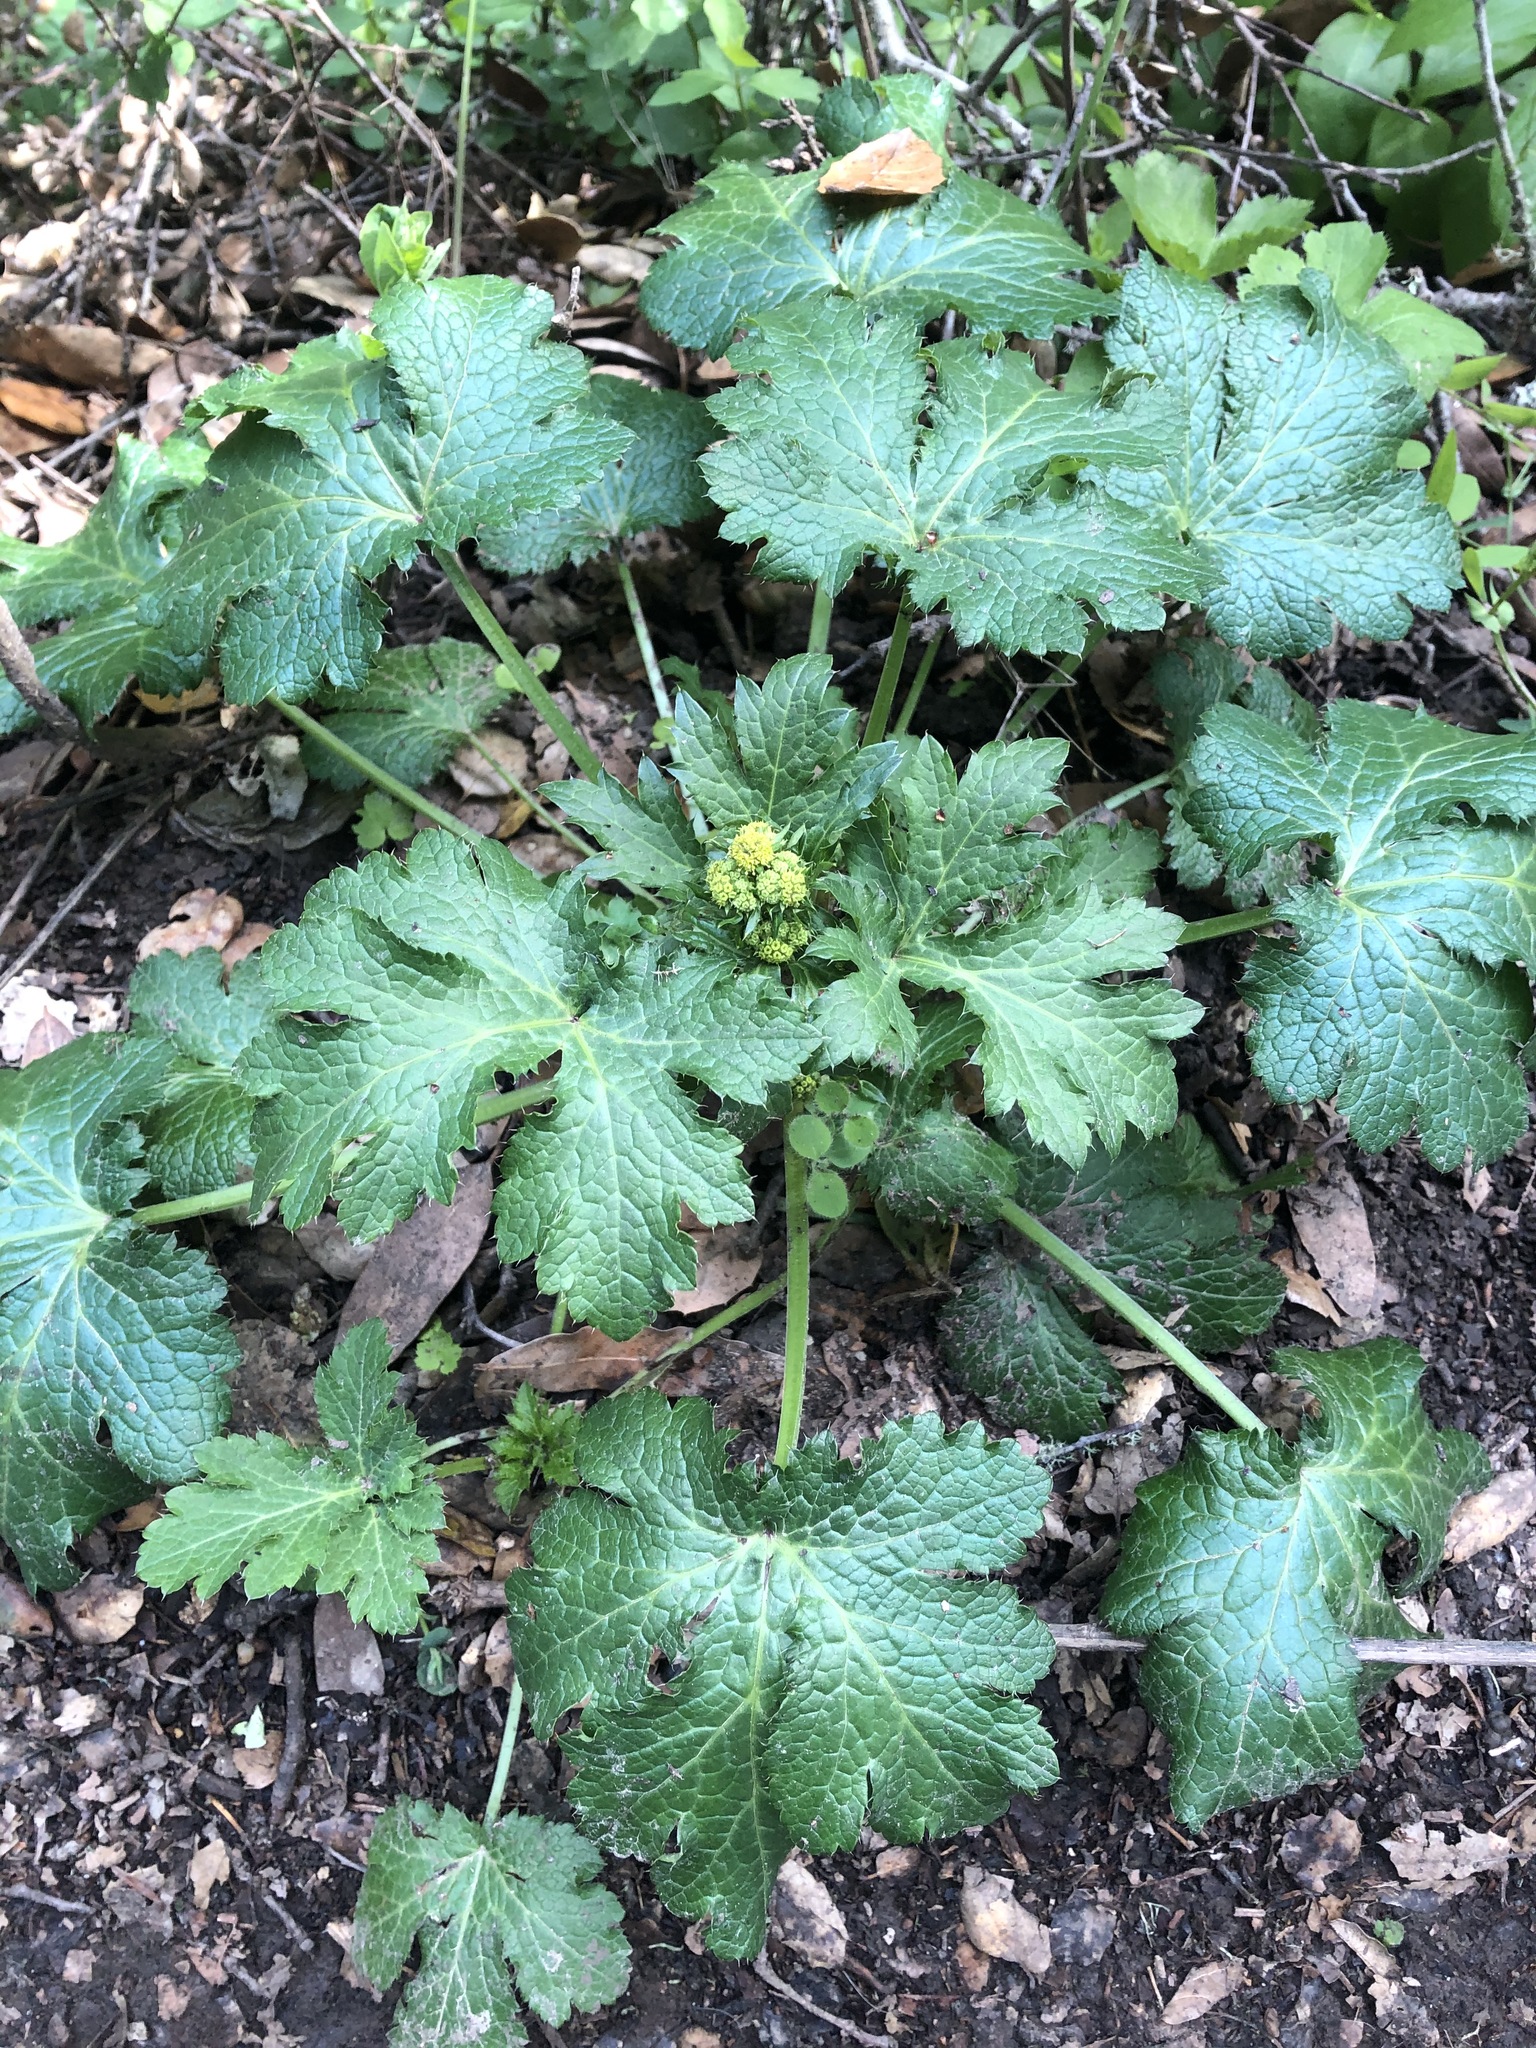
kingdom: Plantae
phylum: Tracheophyta
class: Magnoliopsida
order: Apiales
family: Apiaceae
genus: Sanicula
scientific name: Sanicula crassicaulis
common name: Western snakeroot
